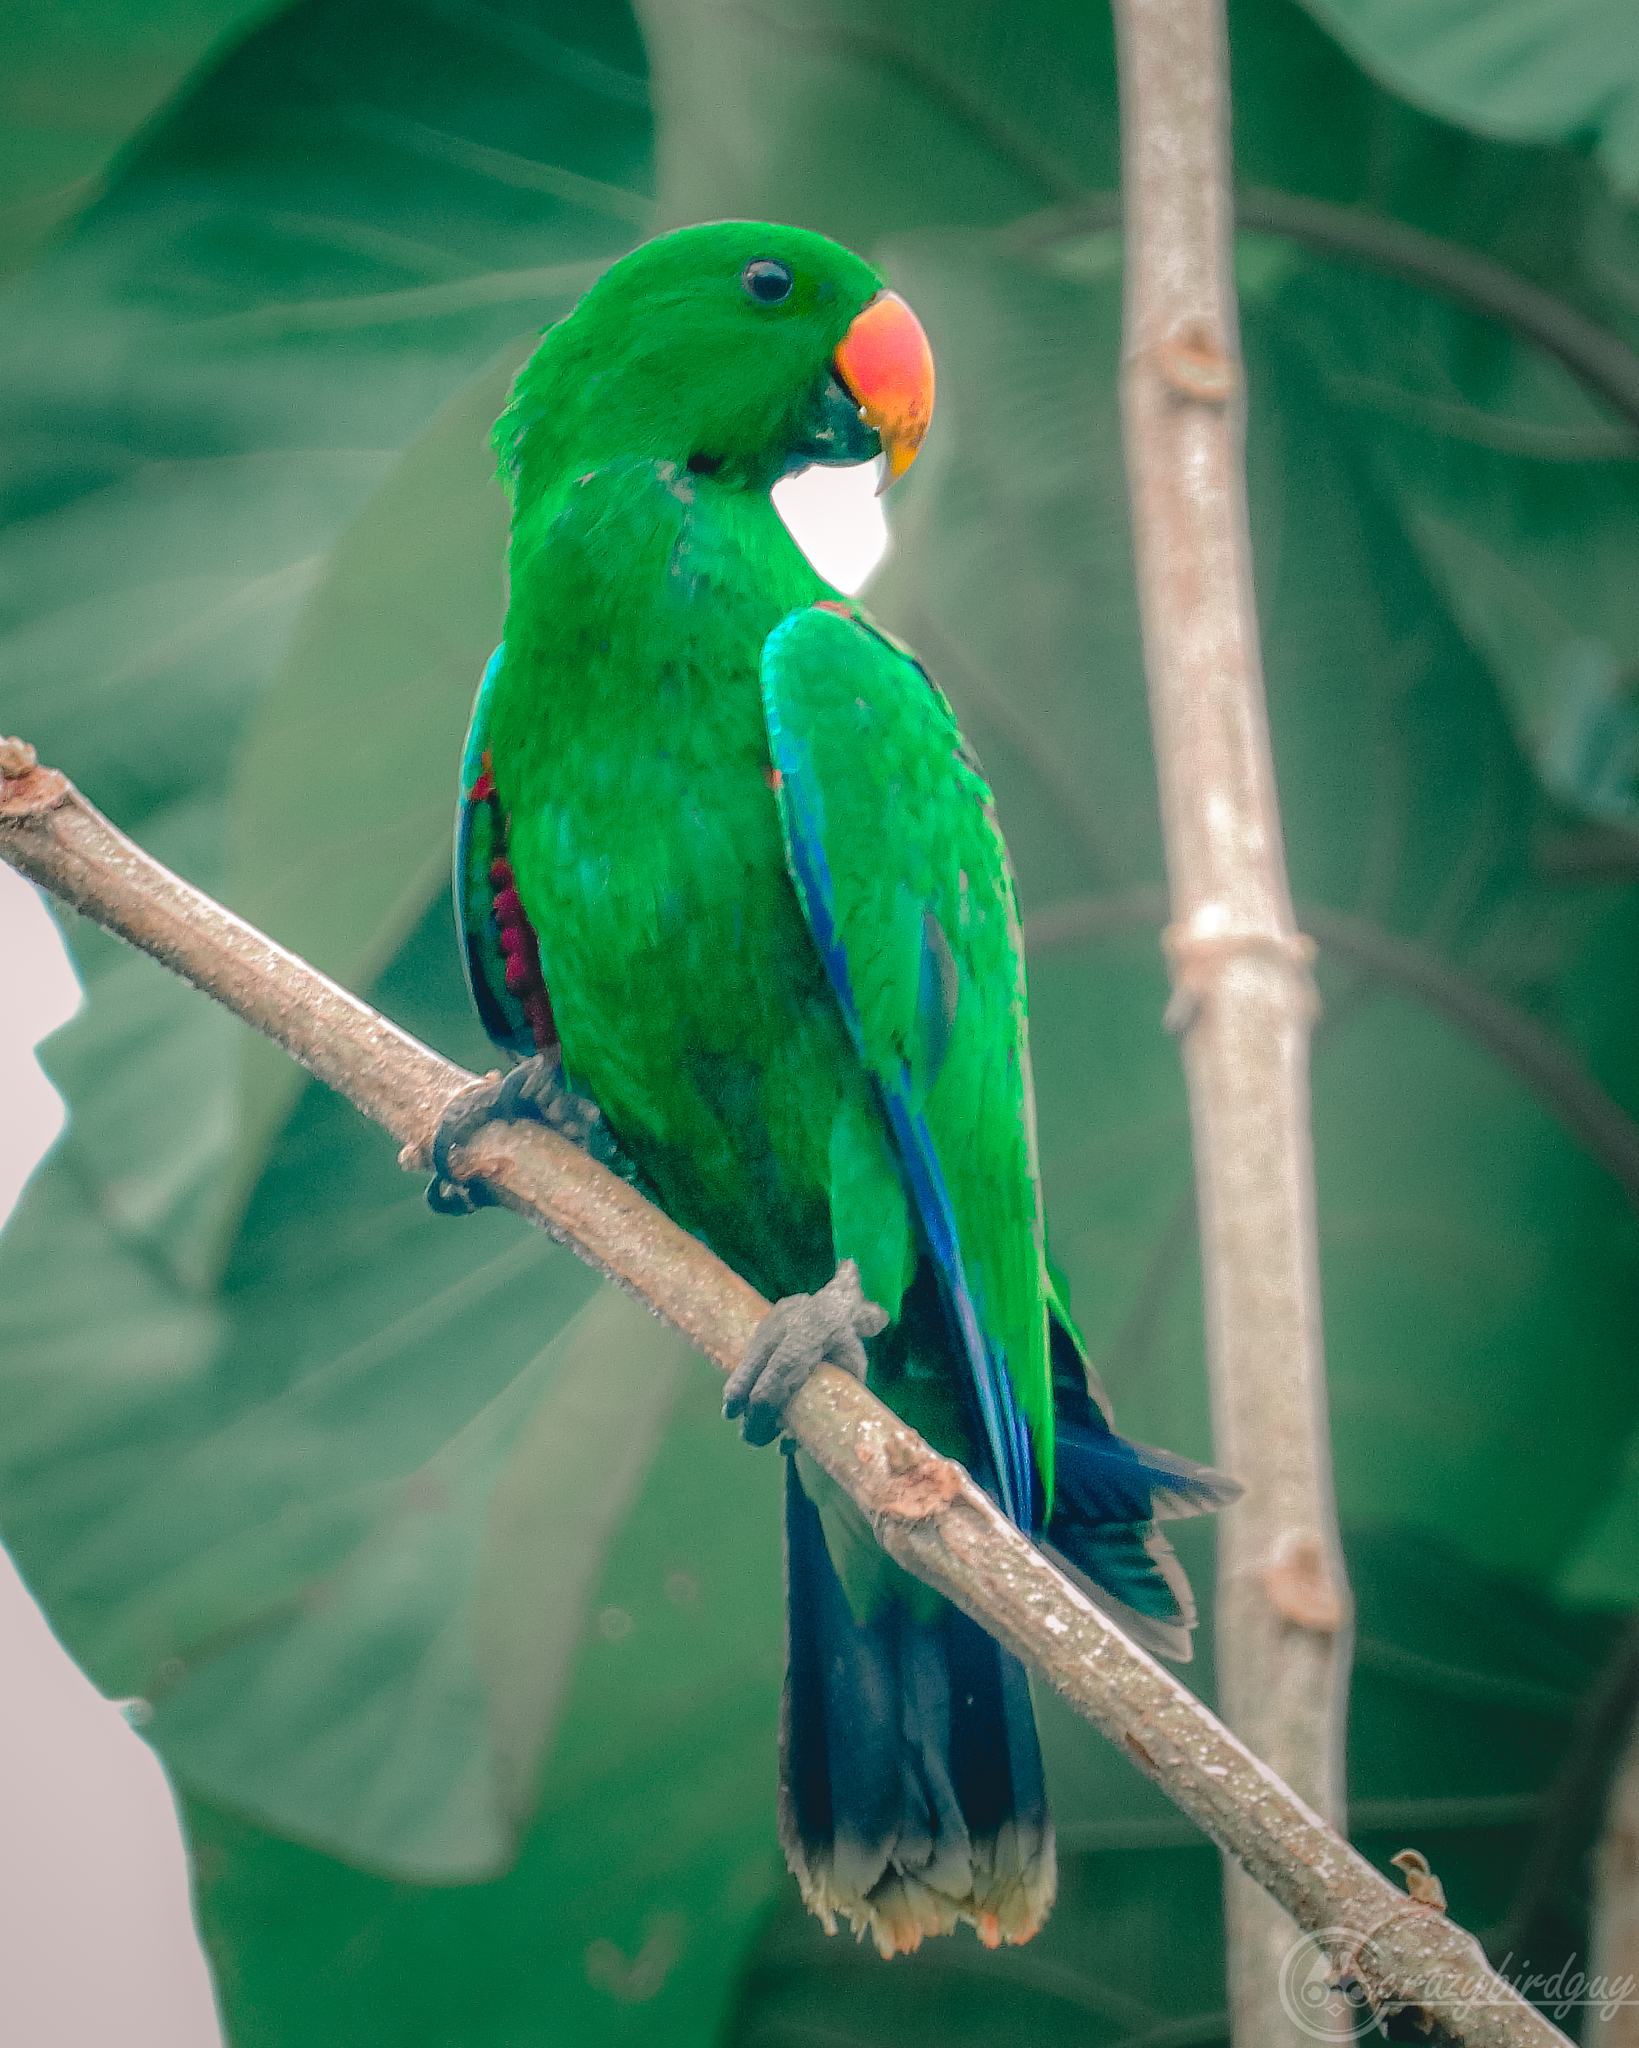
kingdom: Animalia
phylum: Chordata
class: Aves
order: Psittaciformes
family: Psittacidae
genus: Eclectus
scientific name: Eclectus roratus
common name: Eclectus parrot
